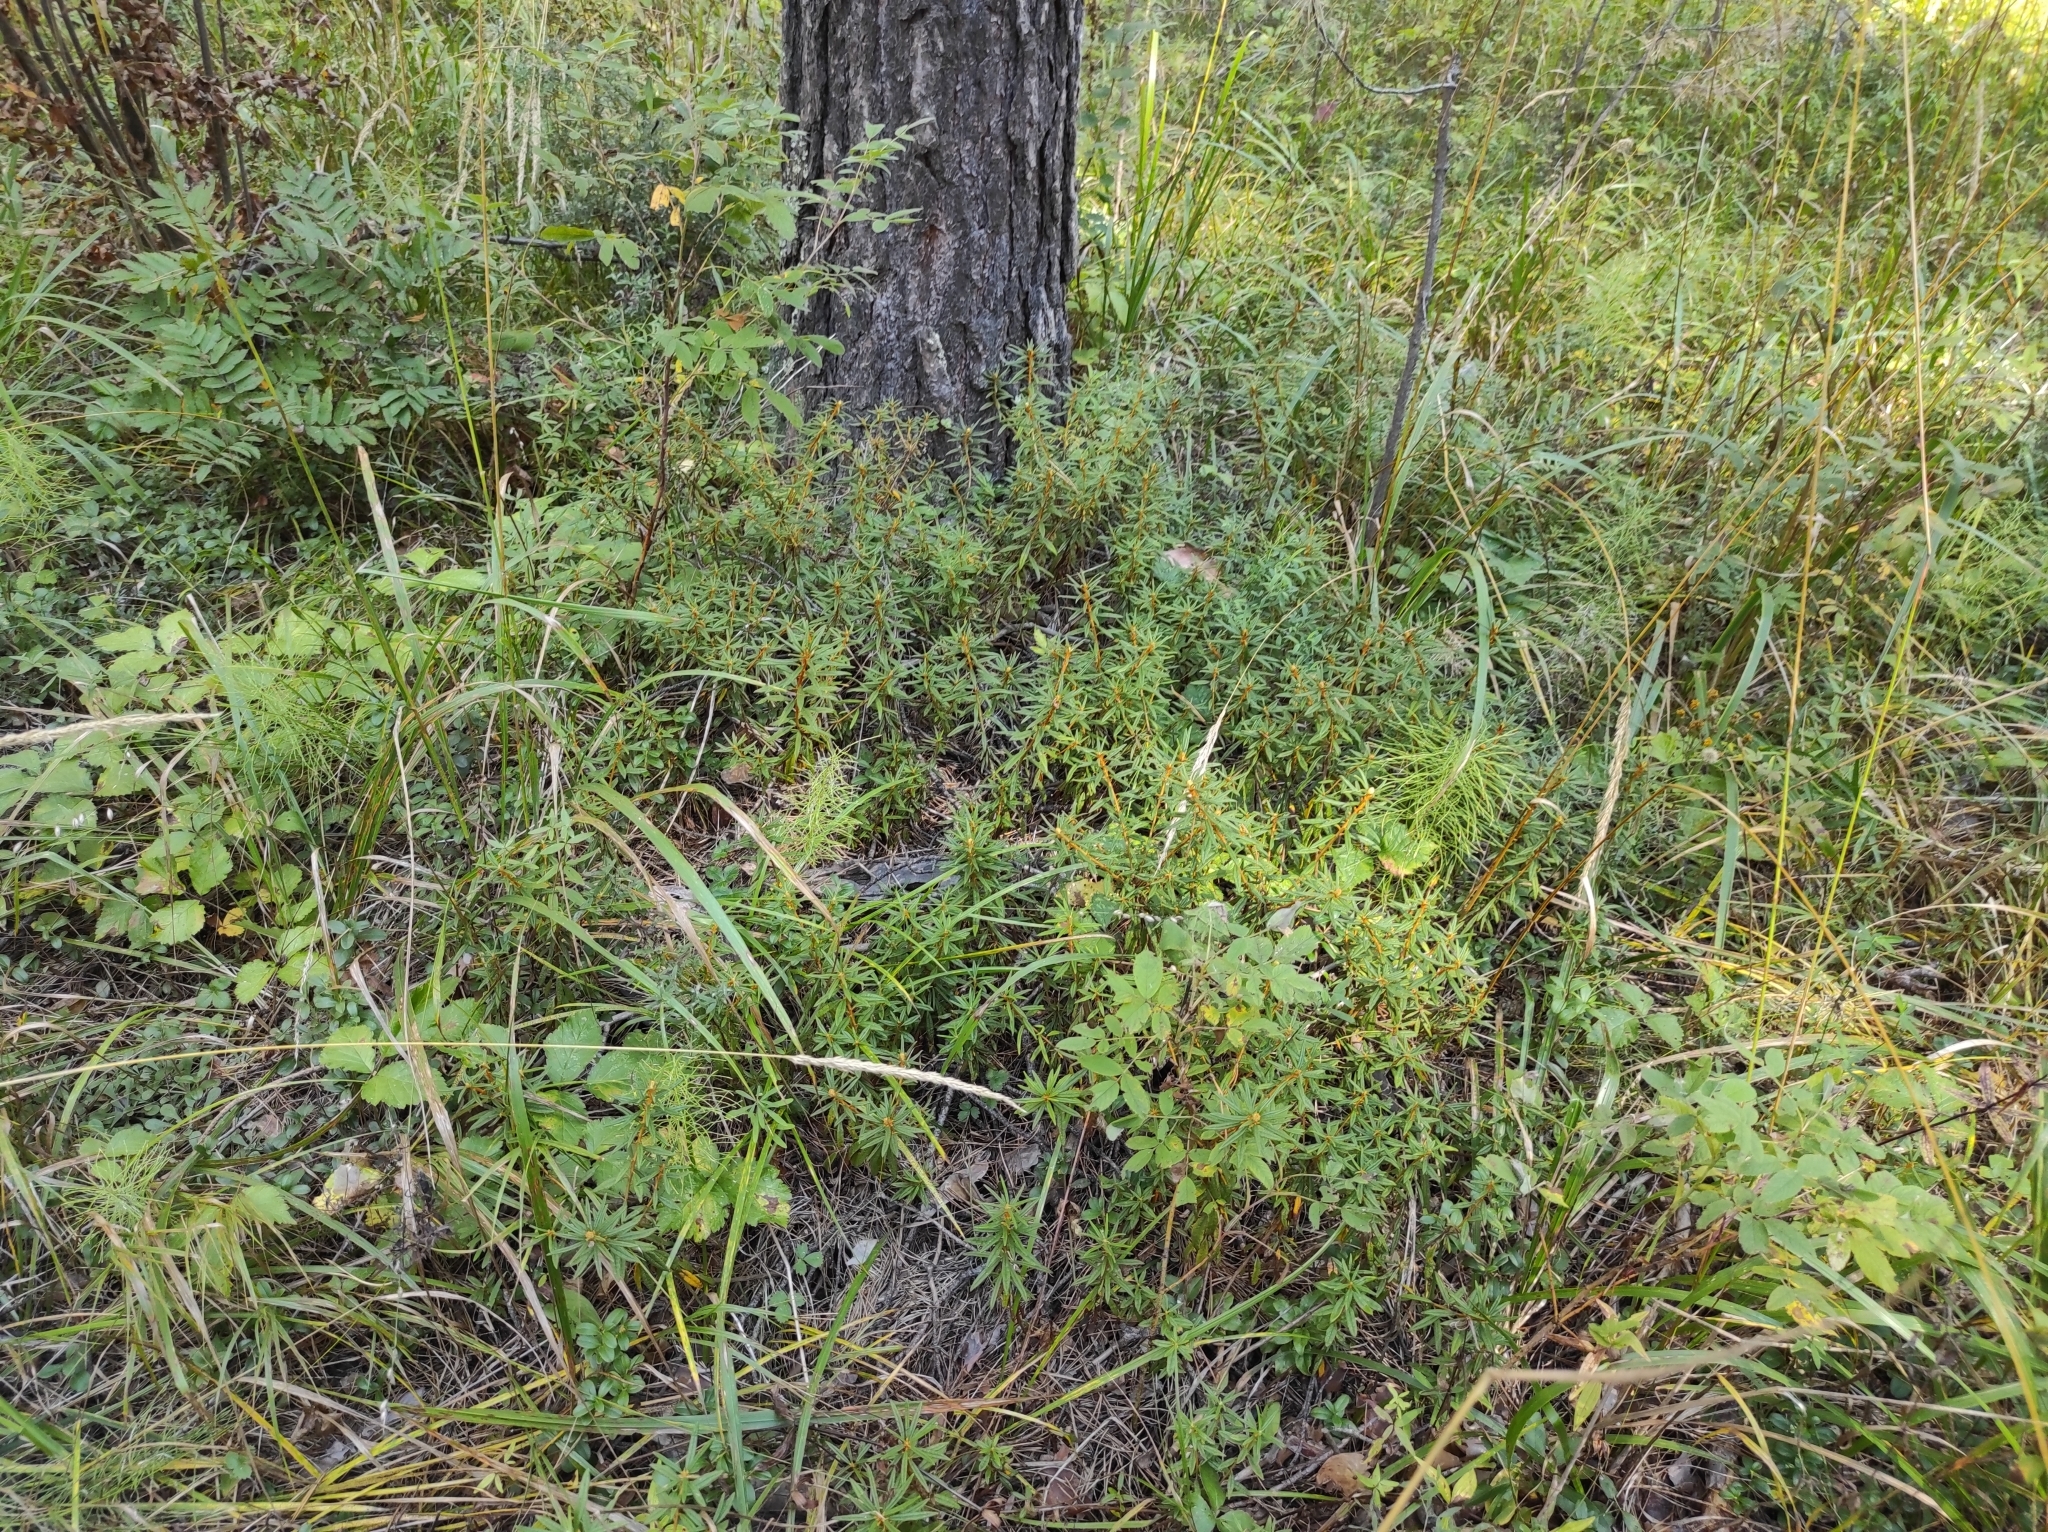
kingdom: Plantae
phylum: Tracheophyta
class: Magnoliopsida
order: Ericales
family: Ericaceae
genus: Rhododendron
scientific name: Rhododendron tomentosum
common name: Marsh labrador tea
